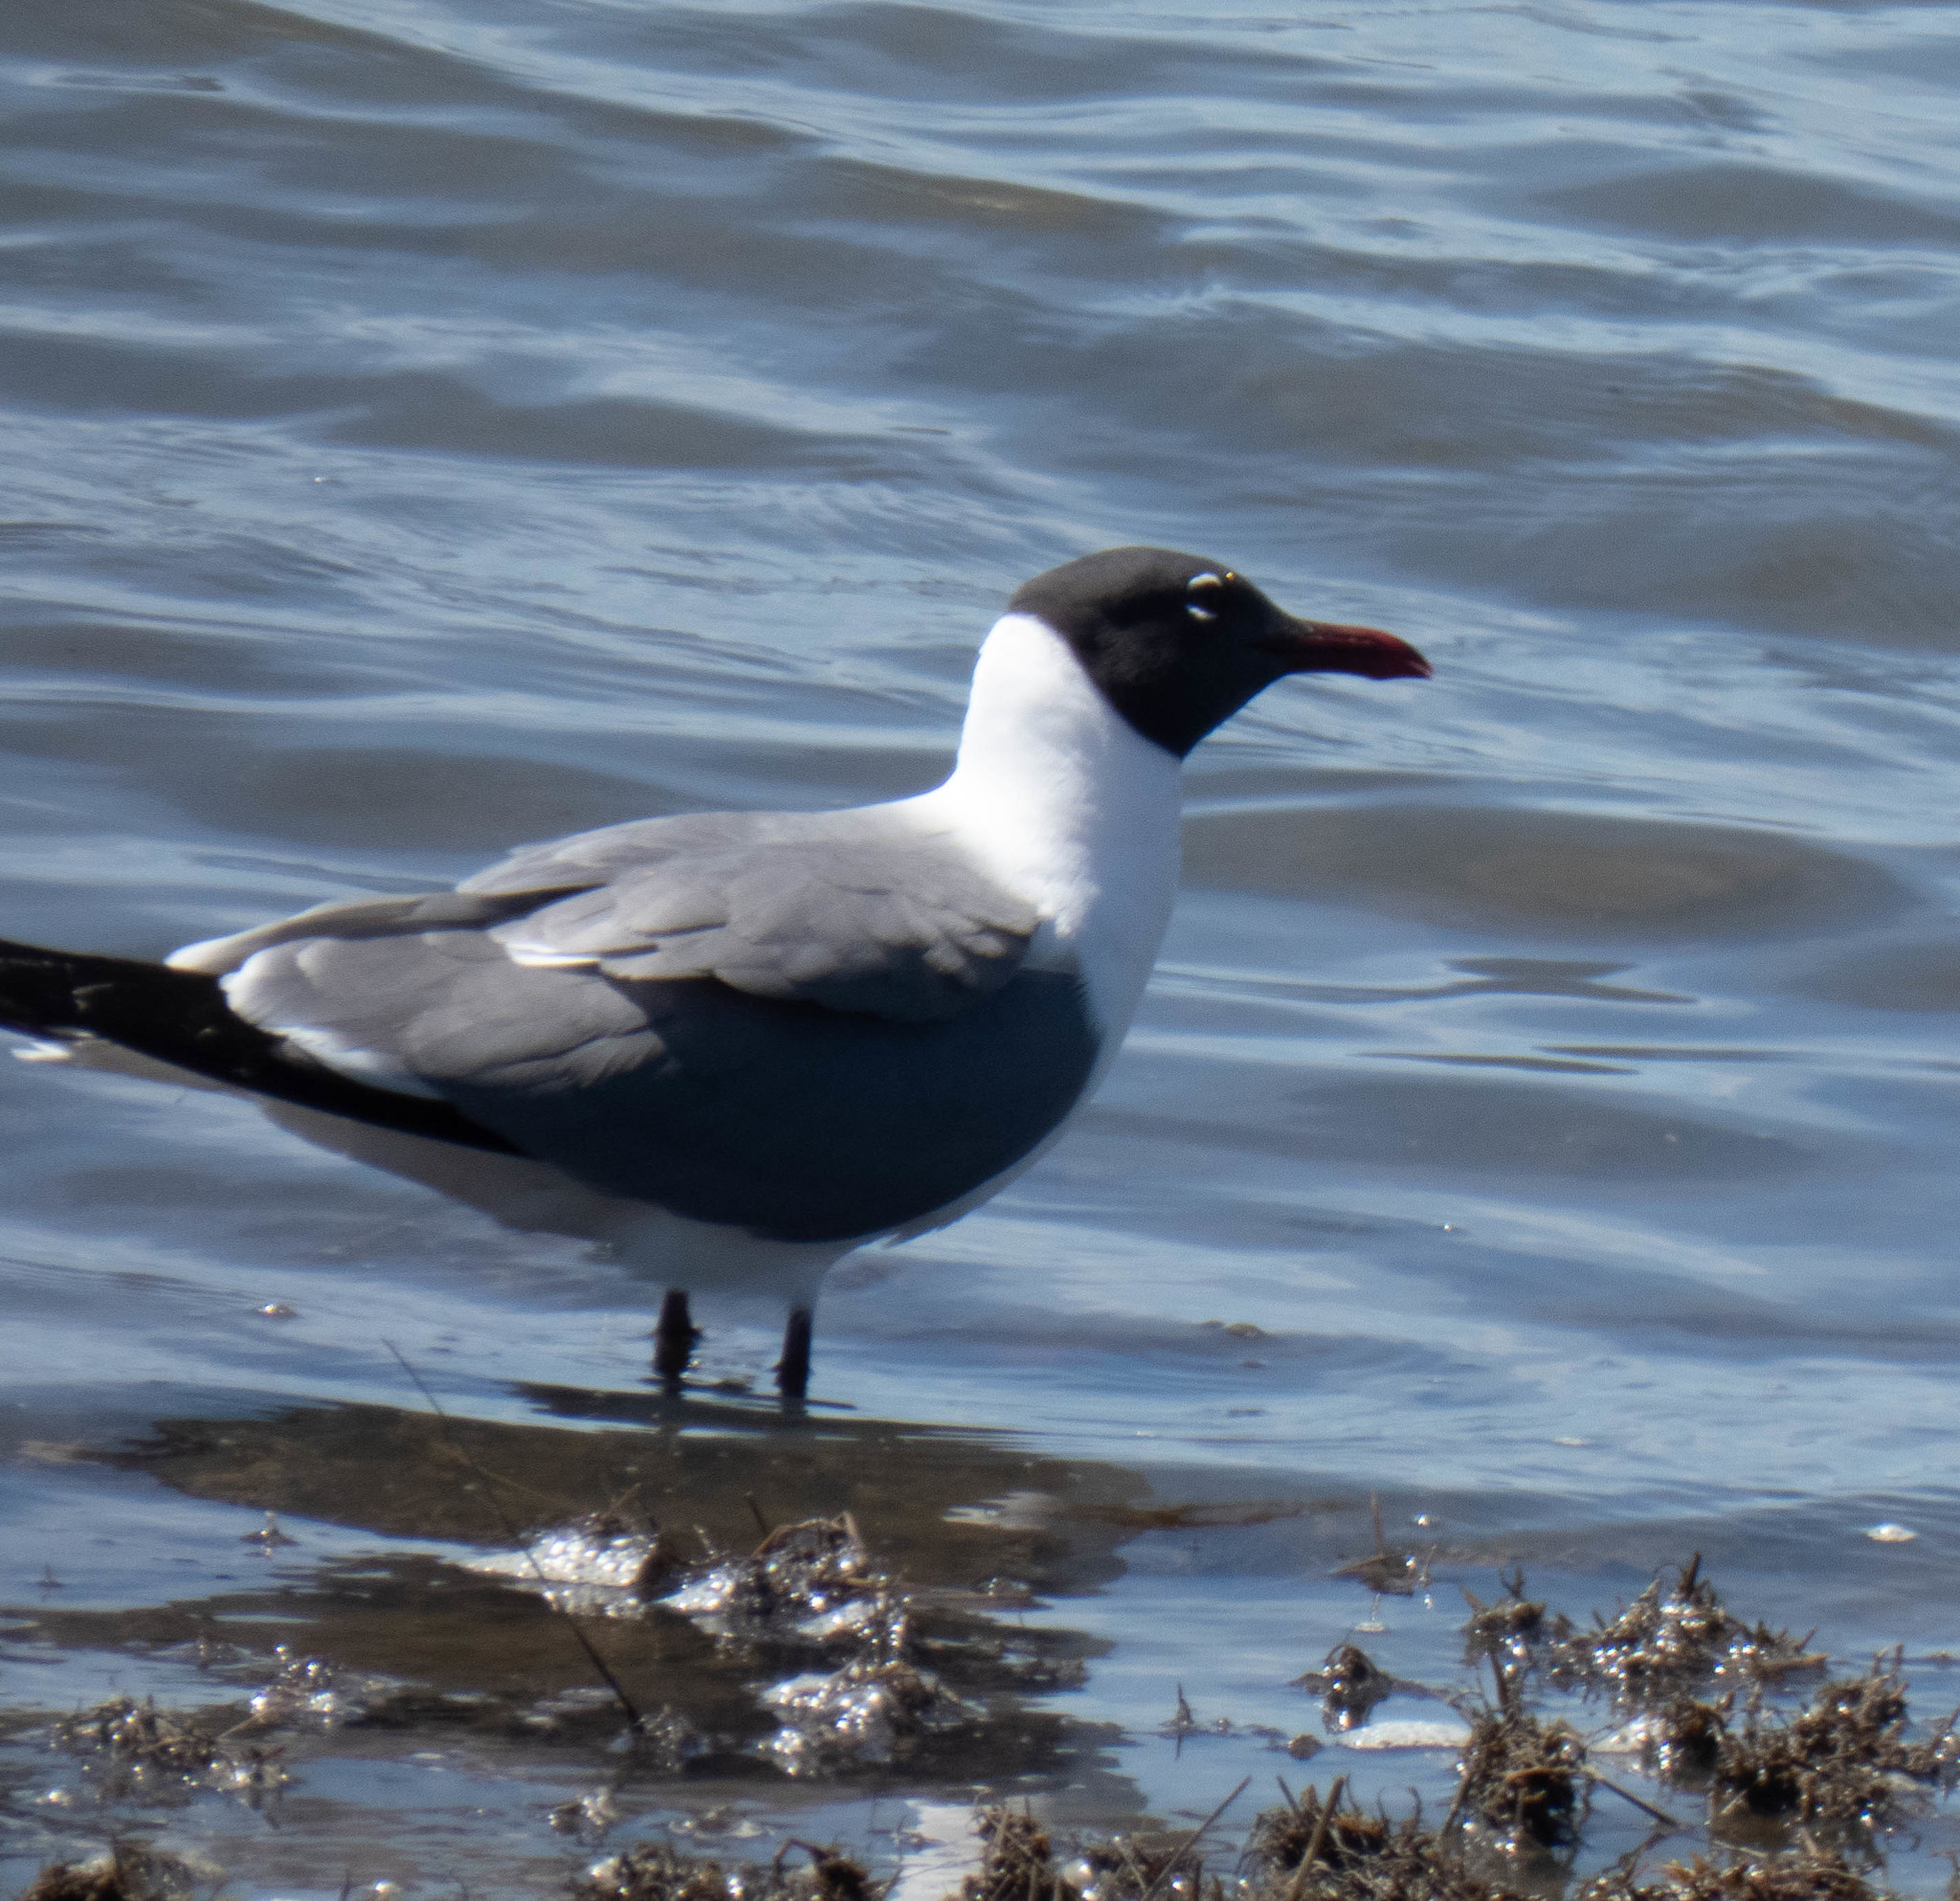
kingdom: Animalia
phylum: Chordata
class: Aves
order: Charadriiformes
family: Laridae
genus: Leucophaeus
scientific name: Leucophaeus atricilla
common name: Laughing gull
